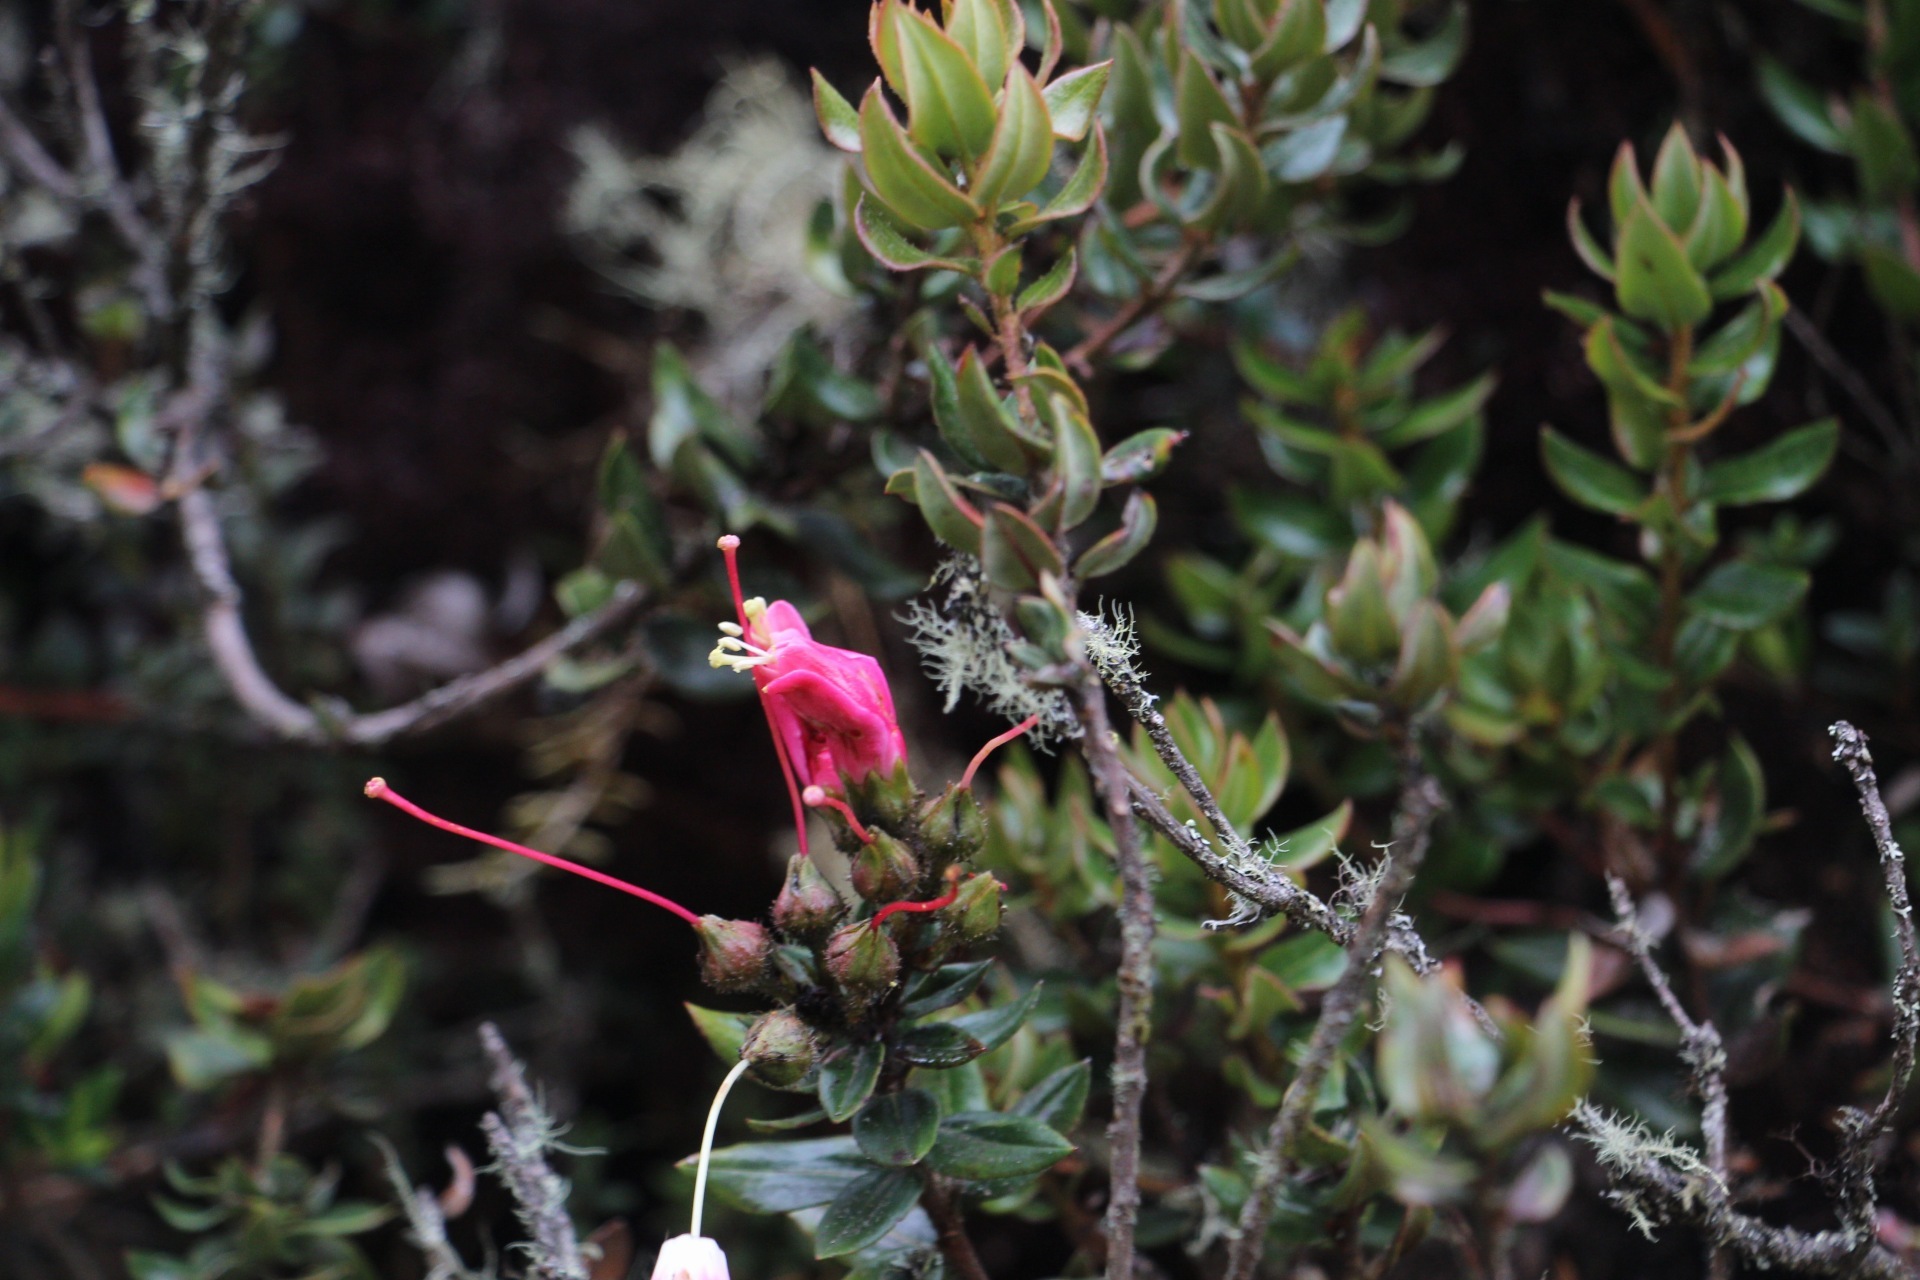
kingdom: Plantae
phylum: Tracheophyta
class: Magnoliopsida
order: Ericales
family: Ericaceae
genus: Bejaria
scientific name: Bejaria resinosa
